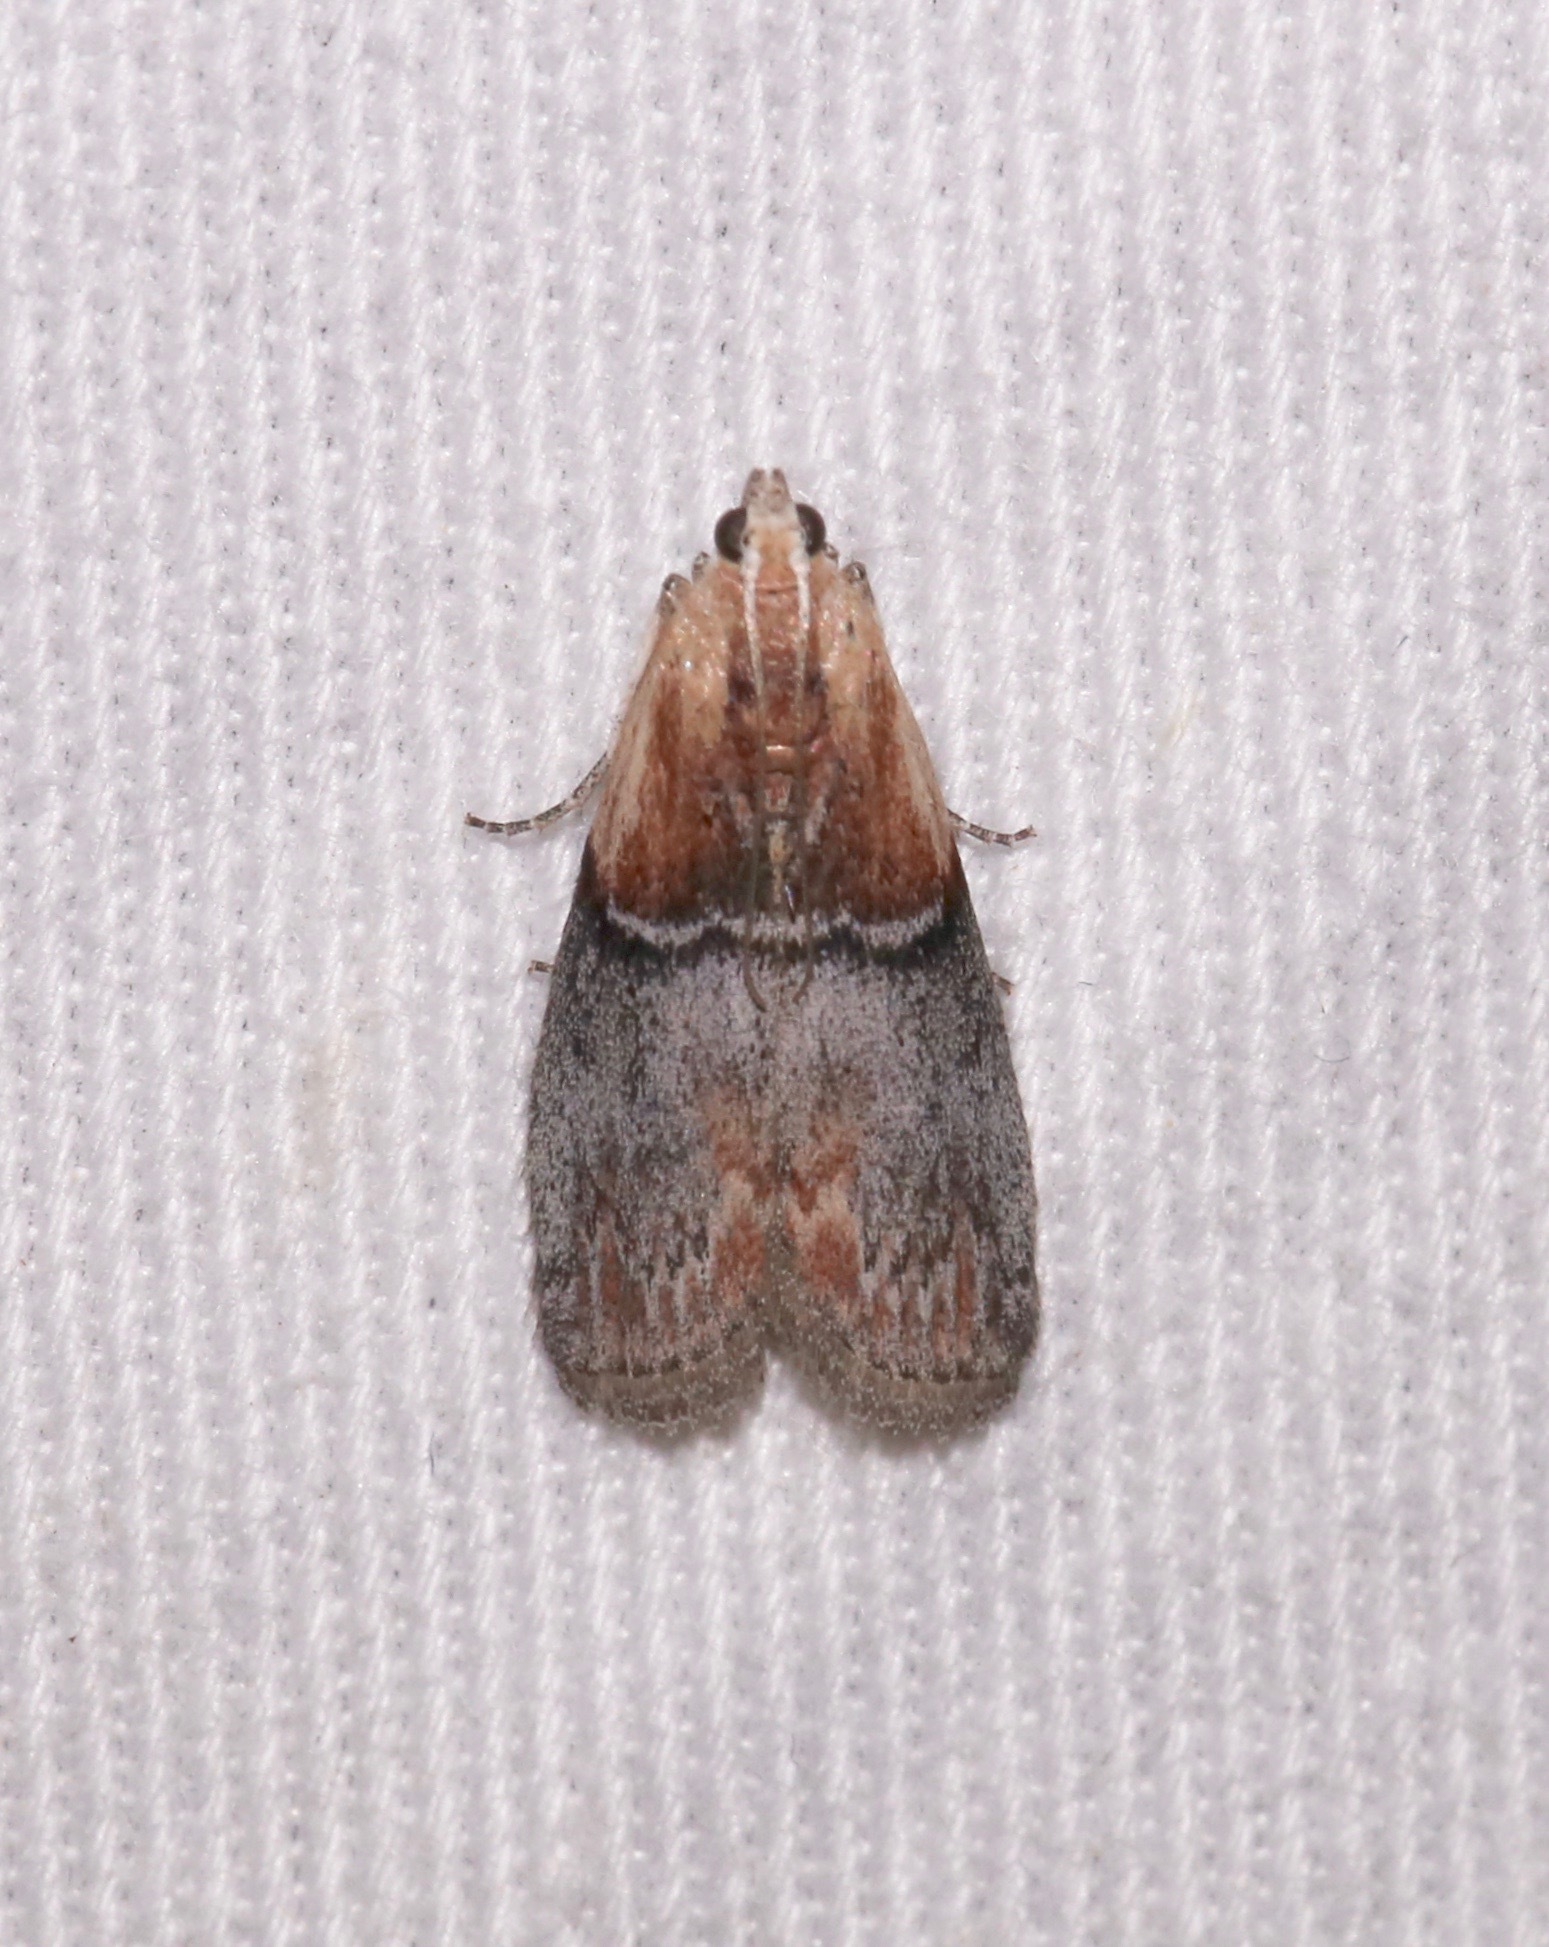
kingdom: Animalia
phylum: Arthropoda
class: Insecta
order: Lepidoptera
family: Pyralidae
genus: Sciota
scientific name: Sciota basilaris
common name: Yellow-shouldered leafroller
